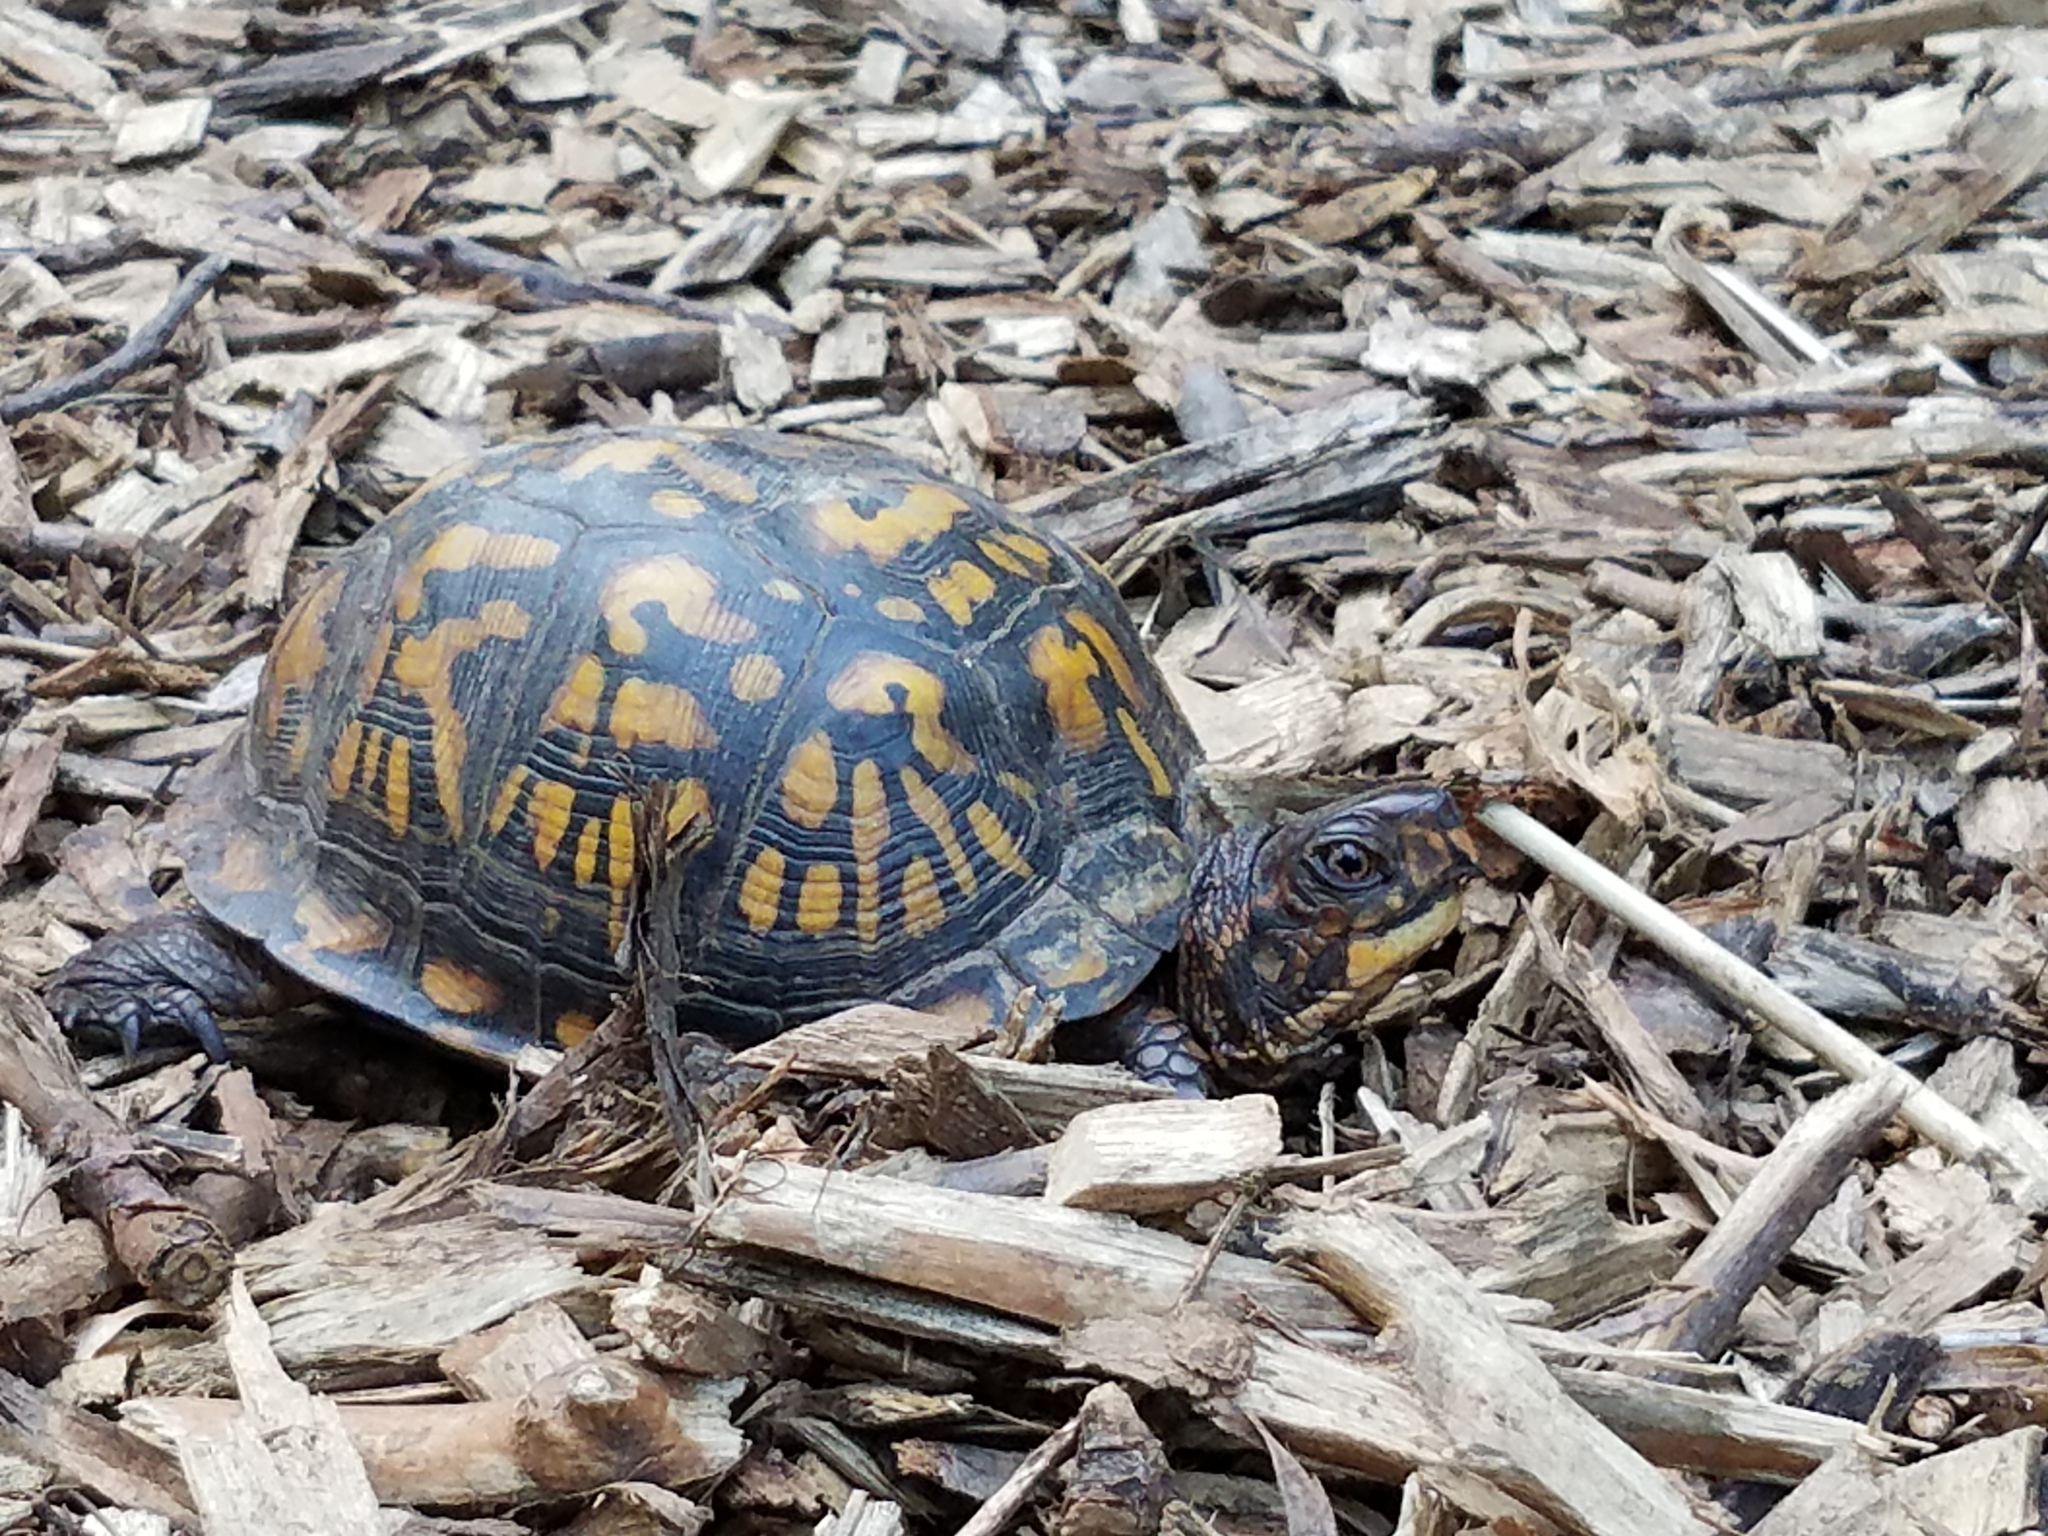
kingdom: Animalia
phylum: Chordata
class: Testudines
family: Emydidae
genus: Terrapene
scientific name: Terrapene carolina
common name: Common box turtle
